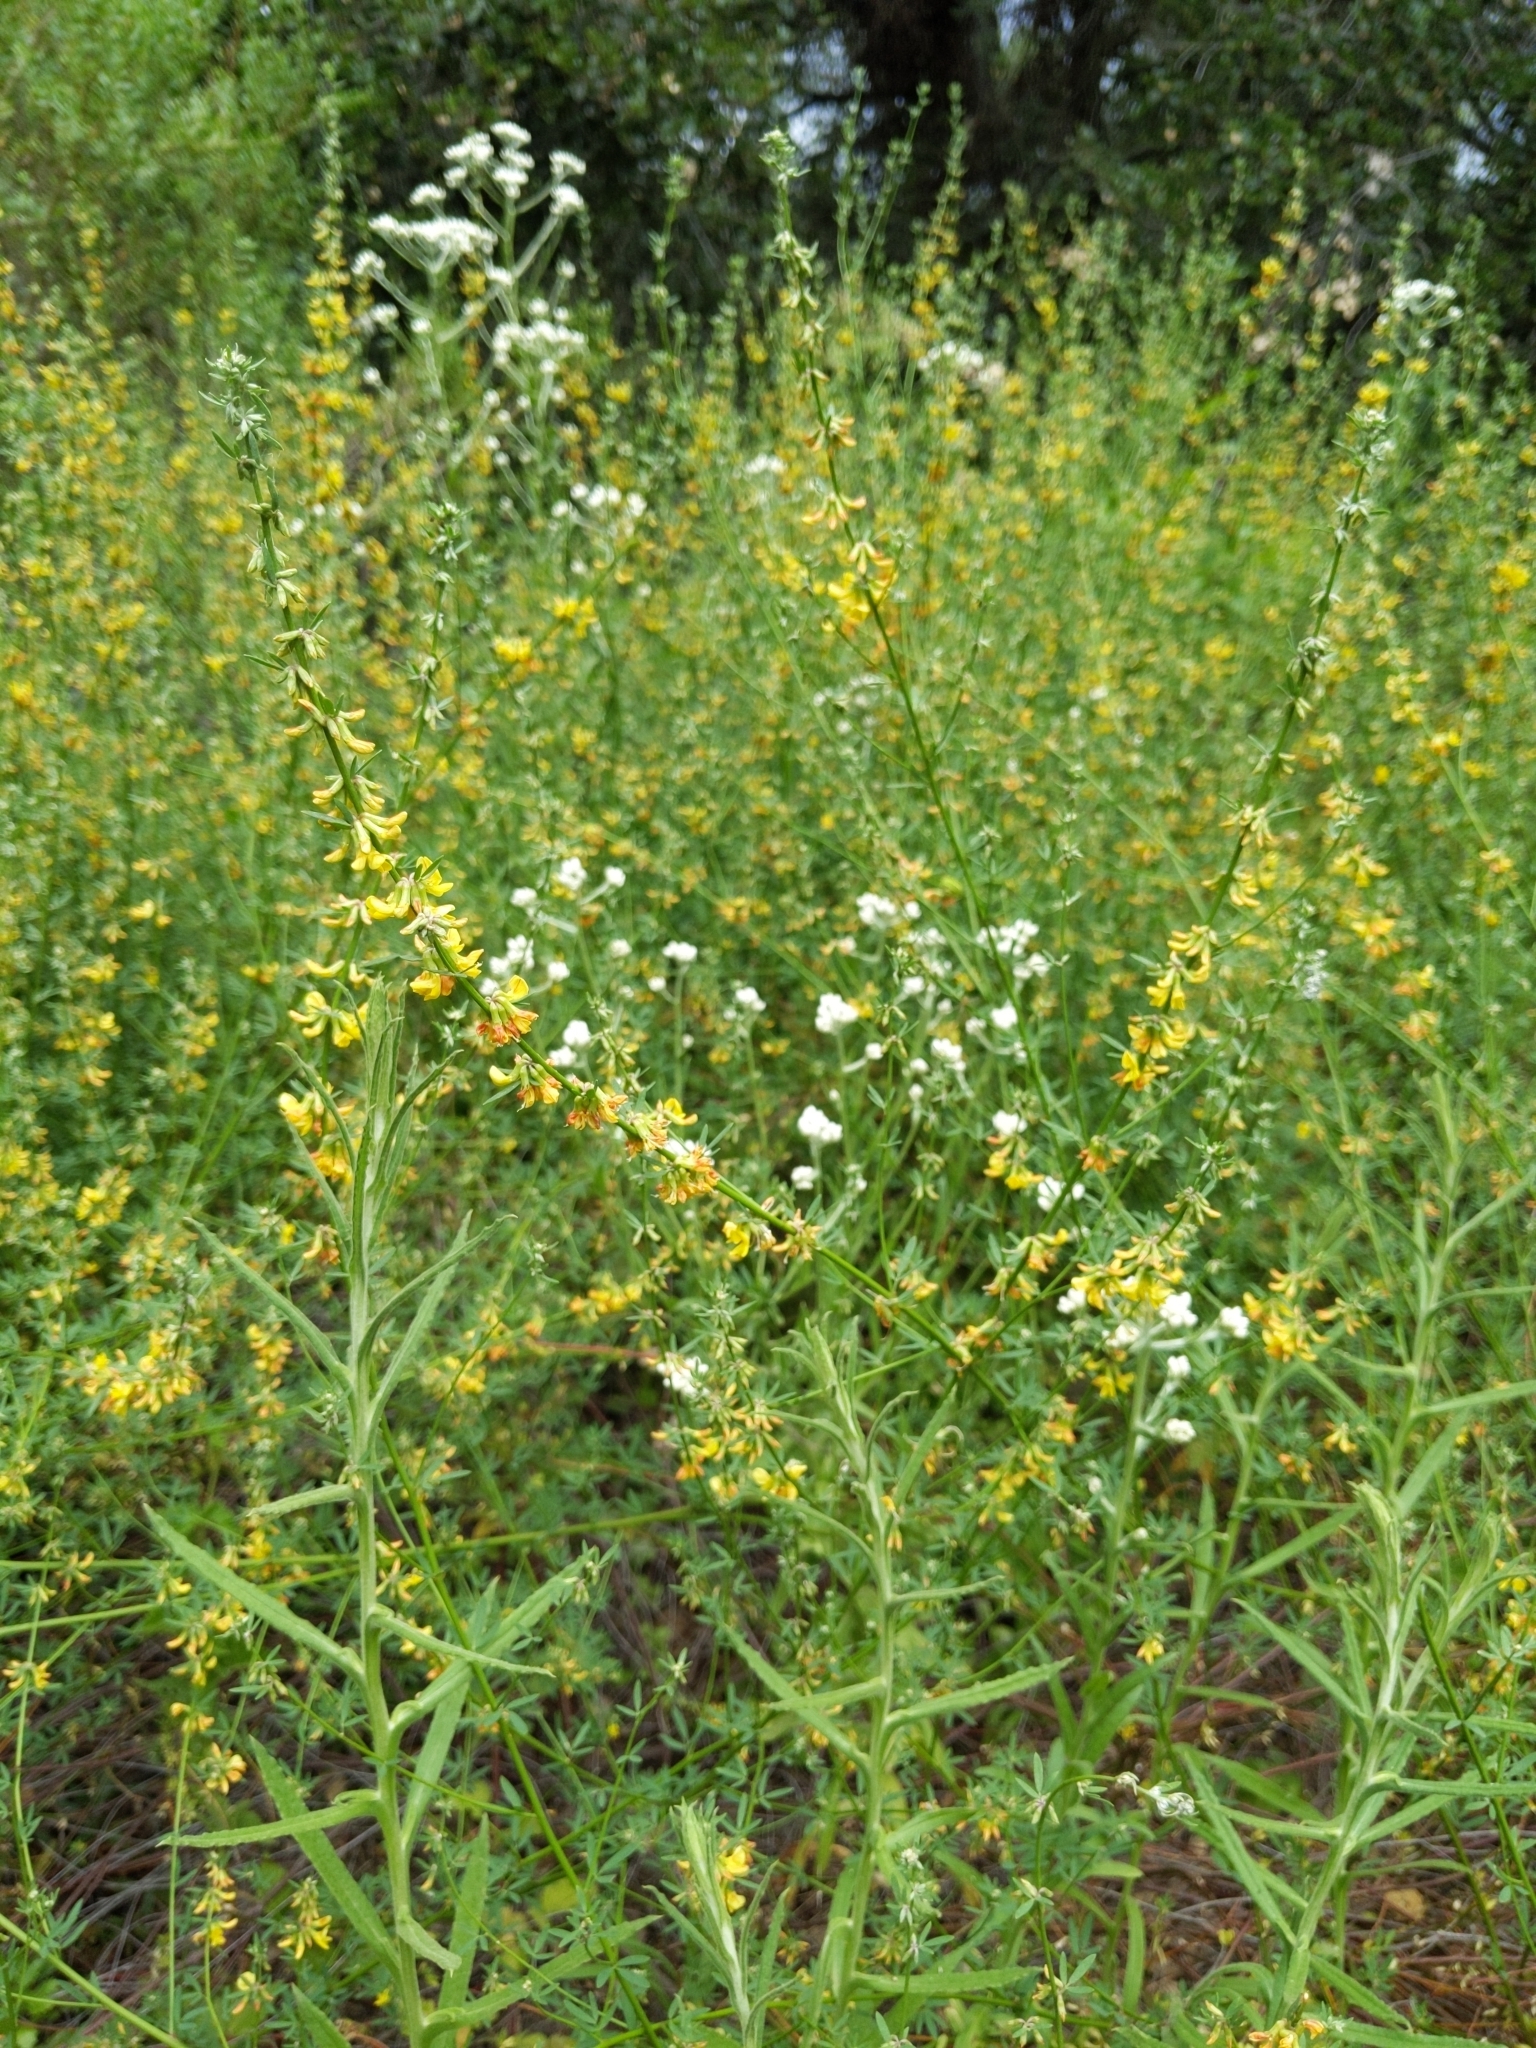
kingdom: Plantae
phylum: Tracheophyta
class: Magnoliopsida
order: Fabales
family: Fabaceae
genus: Acmispon
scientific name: Acmispon glaber
